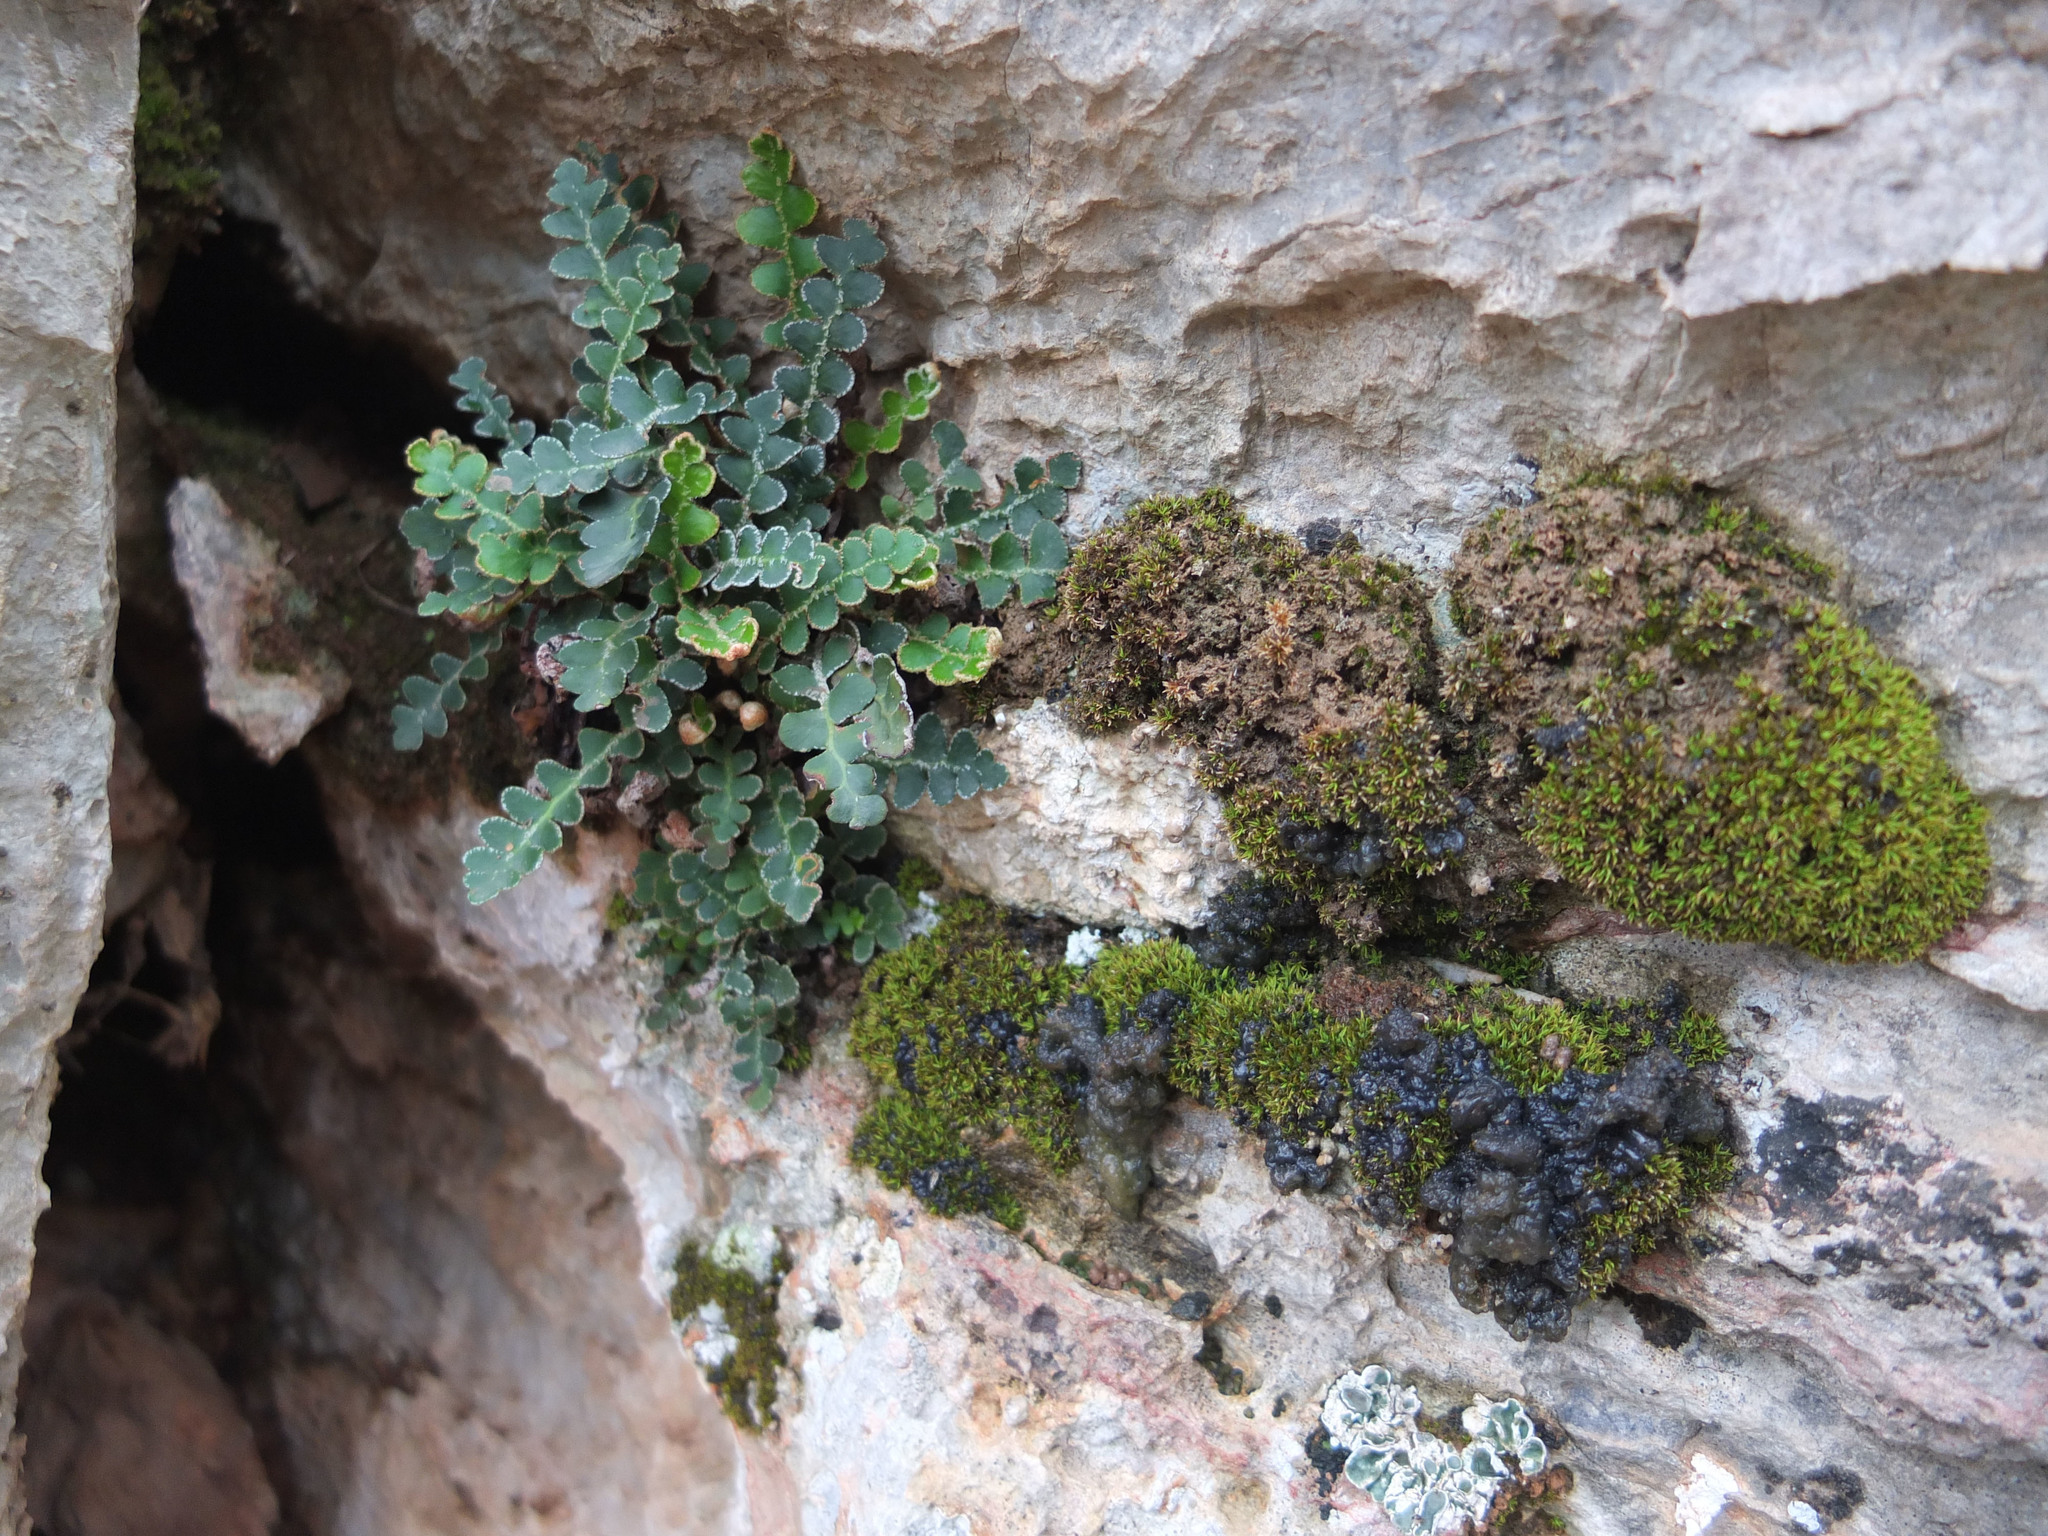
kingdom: Plantae
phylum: Tracheophyta
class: Polypodiopsida
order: Polypodiales
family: Aspleniaceae
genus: Asplenium
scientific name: Asplenium ceterach
